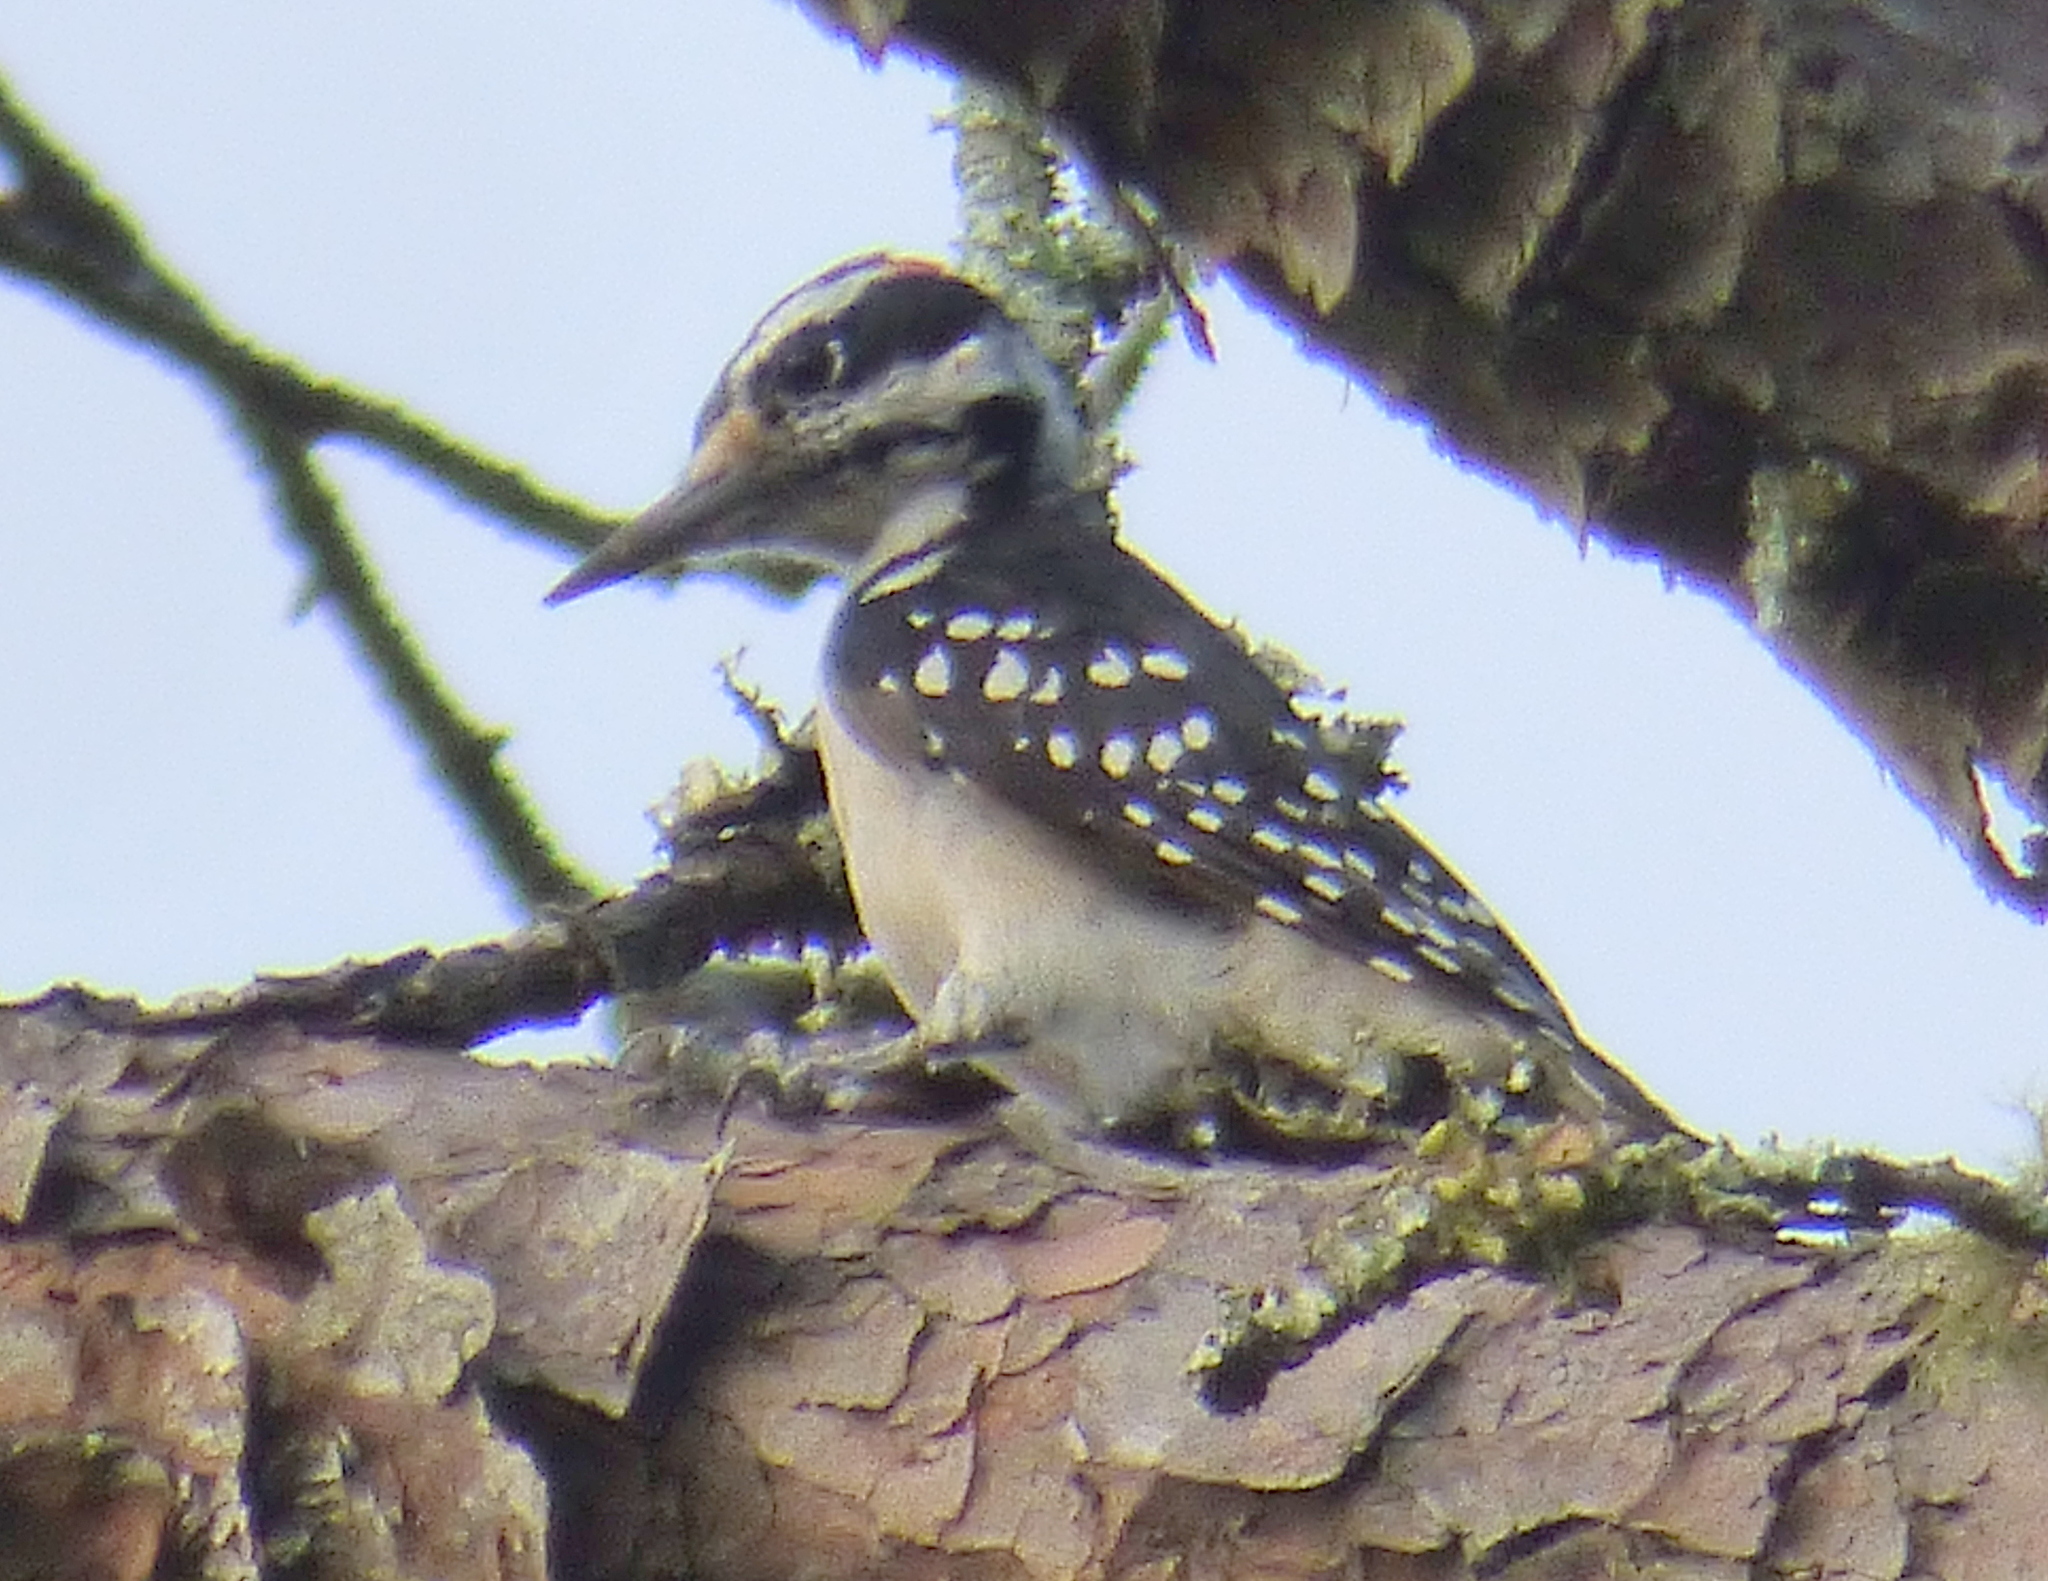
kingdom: Animalia
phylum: Chordata
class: Aves
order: Piciformes
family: Picidae
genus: Leuconotopicus
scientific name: Leuconotopicus villosus
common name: Hairy woodpecker
